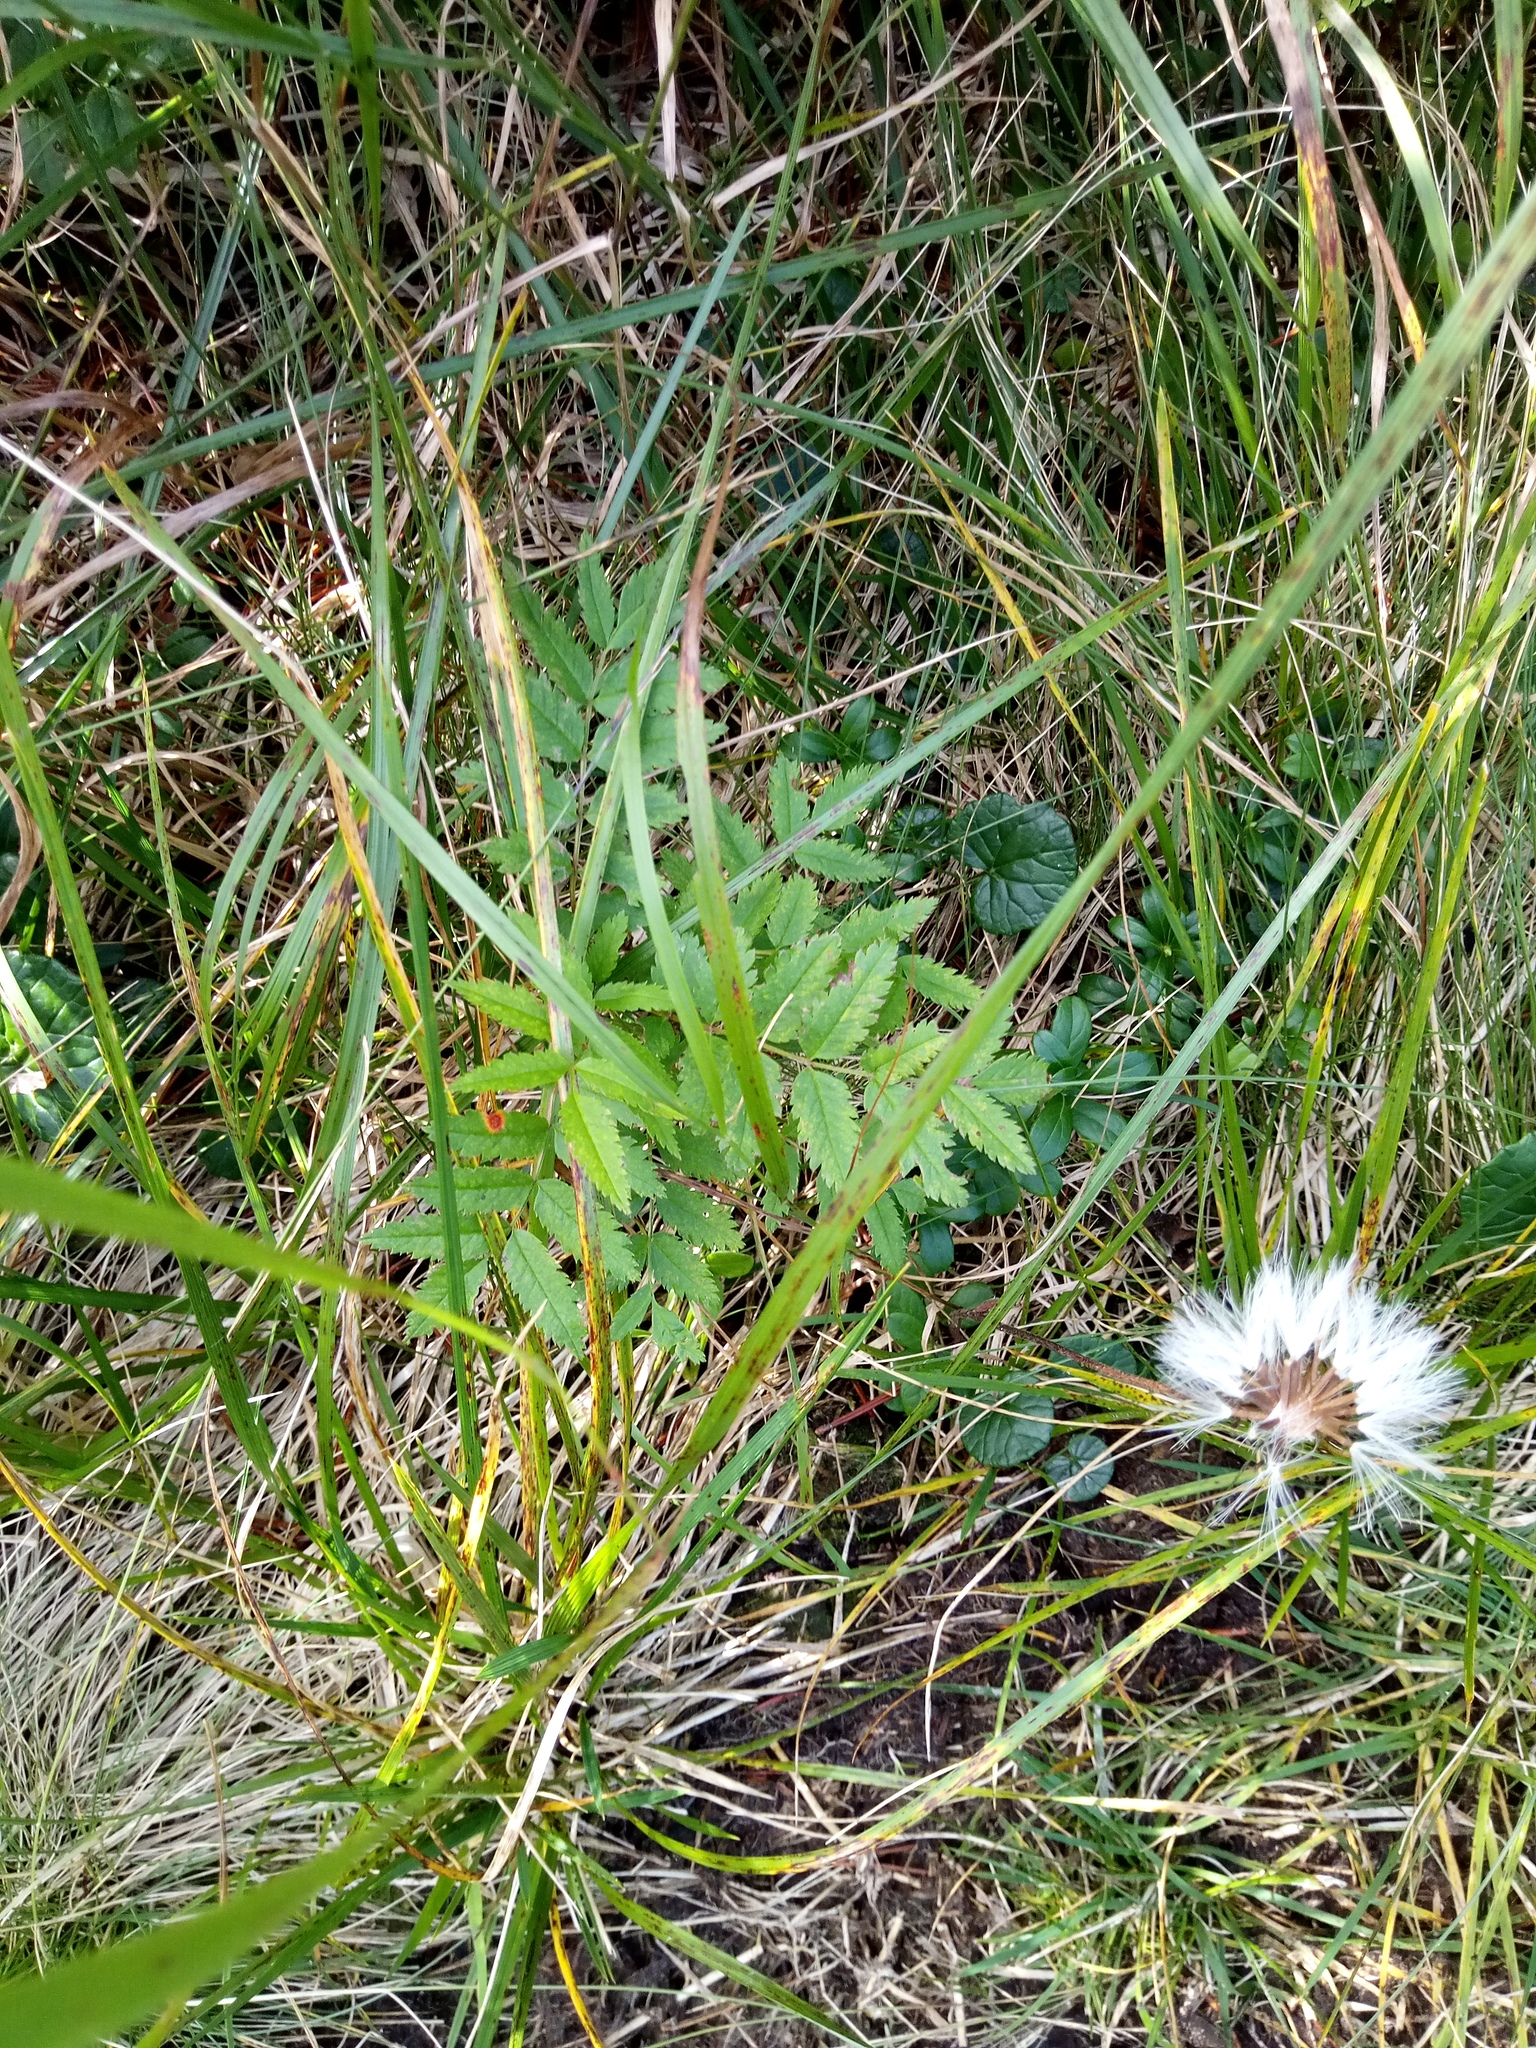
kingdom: Plantae
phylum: Tracheophyta
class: Magnoliopsida
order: Rosales
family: Rosaceae
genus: Sorbus
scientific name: Sorbus aucuparia
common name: Rowan
